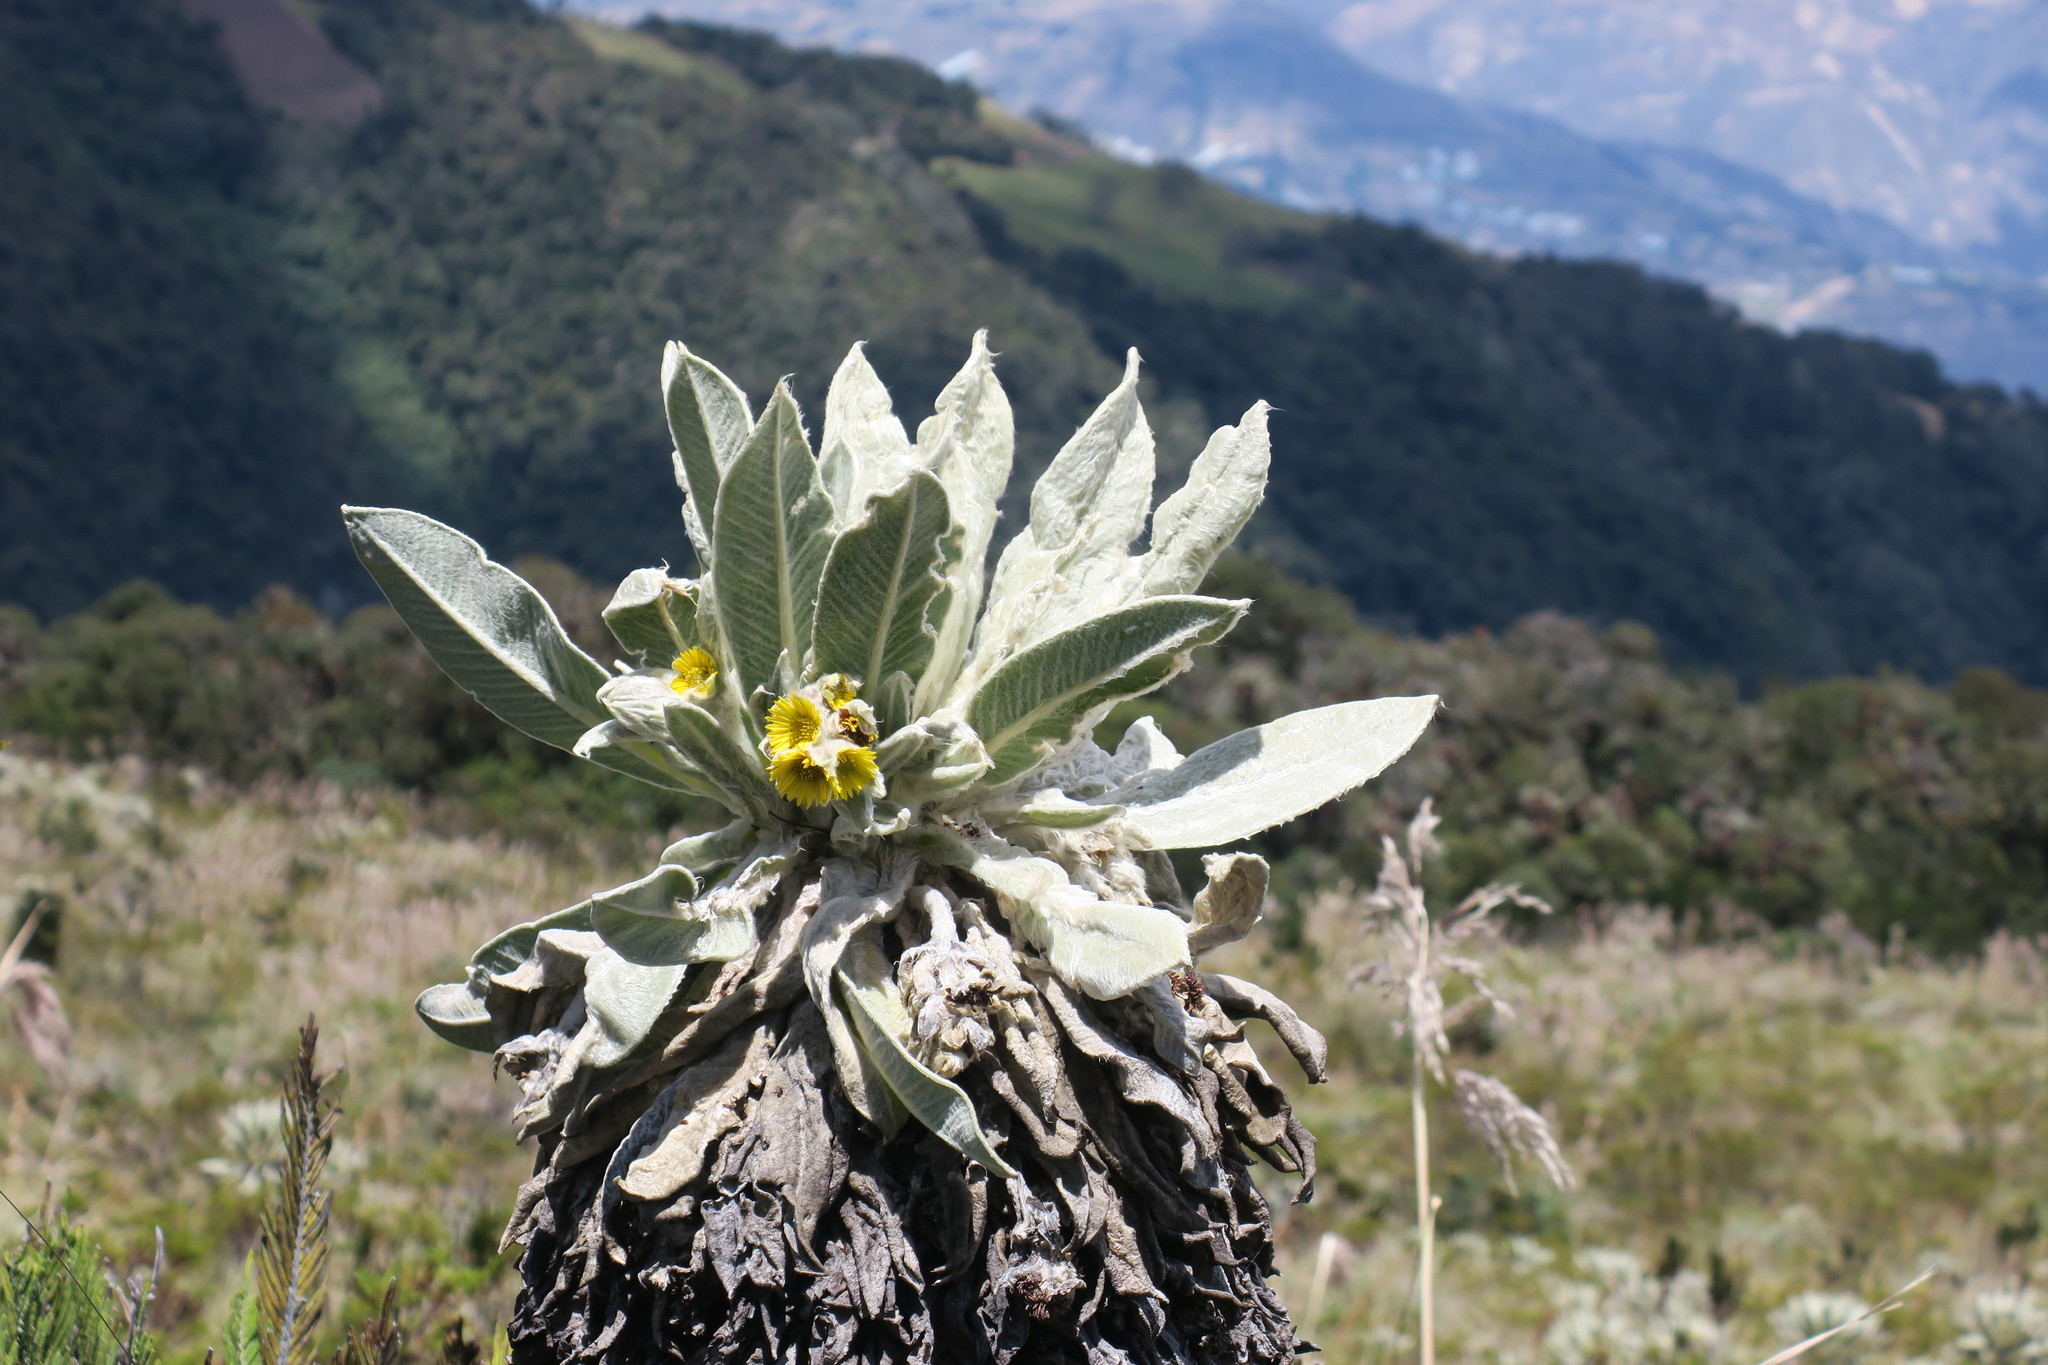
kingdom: Plantae
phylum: Tracheophyta
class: Magnoliopsida
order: Asterales
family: Asteraceae
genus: Espeletia
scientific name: Espeletia pycnophylla
